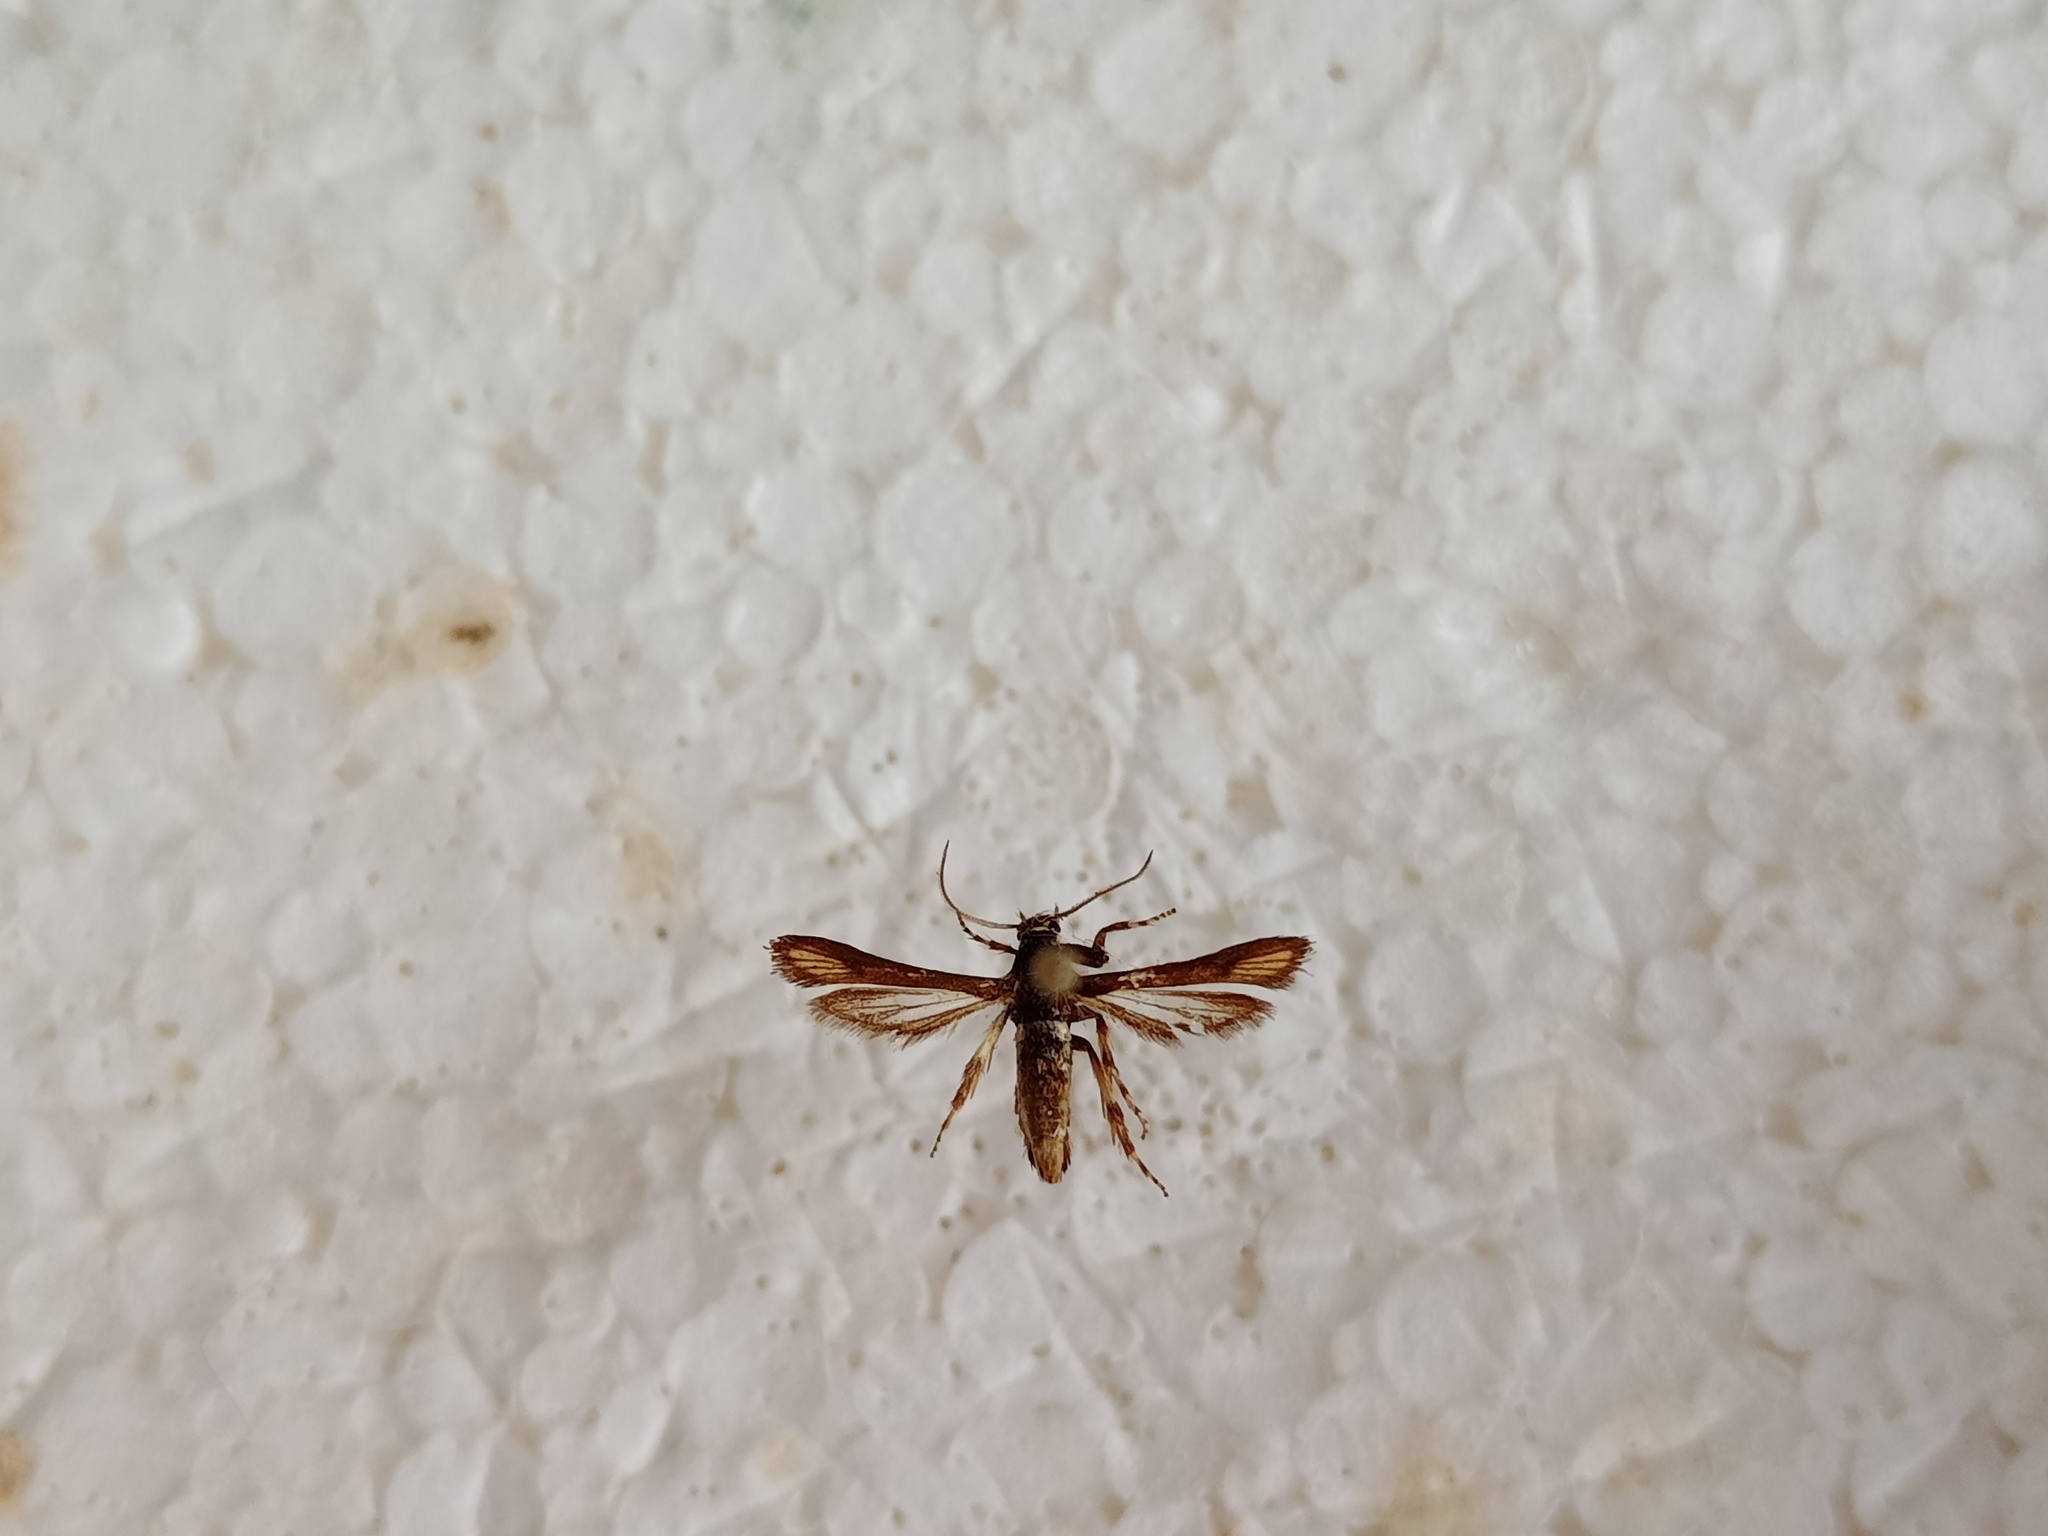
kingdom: Animalia
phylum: Arthropoda
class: Insecta
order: Lepidoptera
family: Sesiidae
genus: Microsphecia
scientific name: Microsphecia brosiformis
